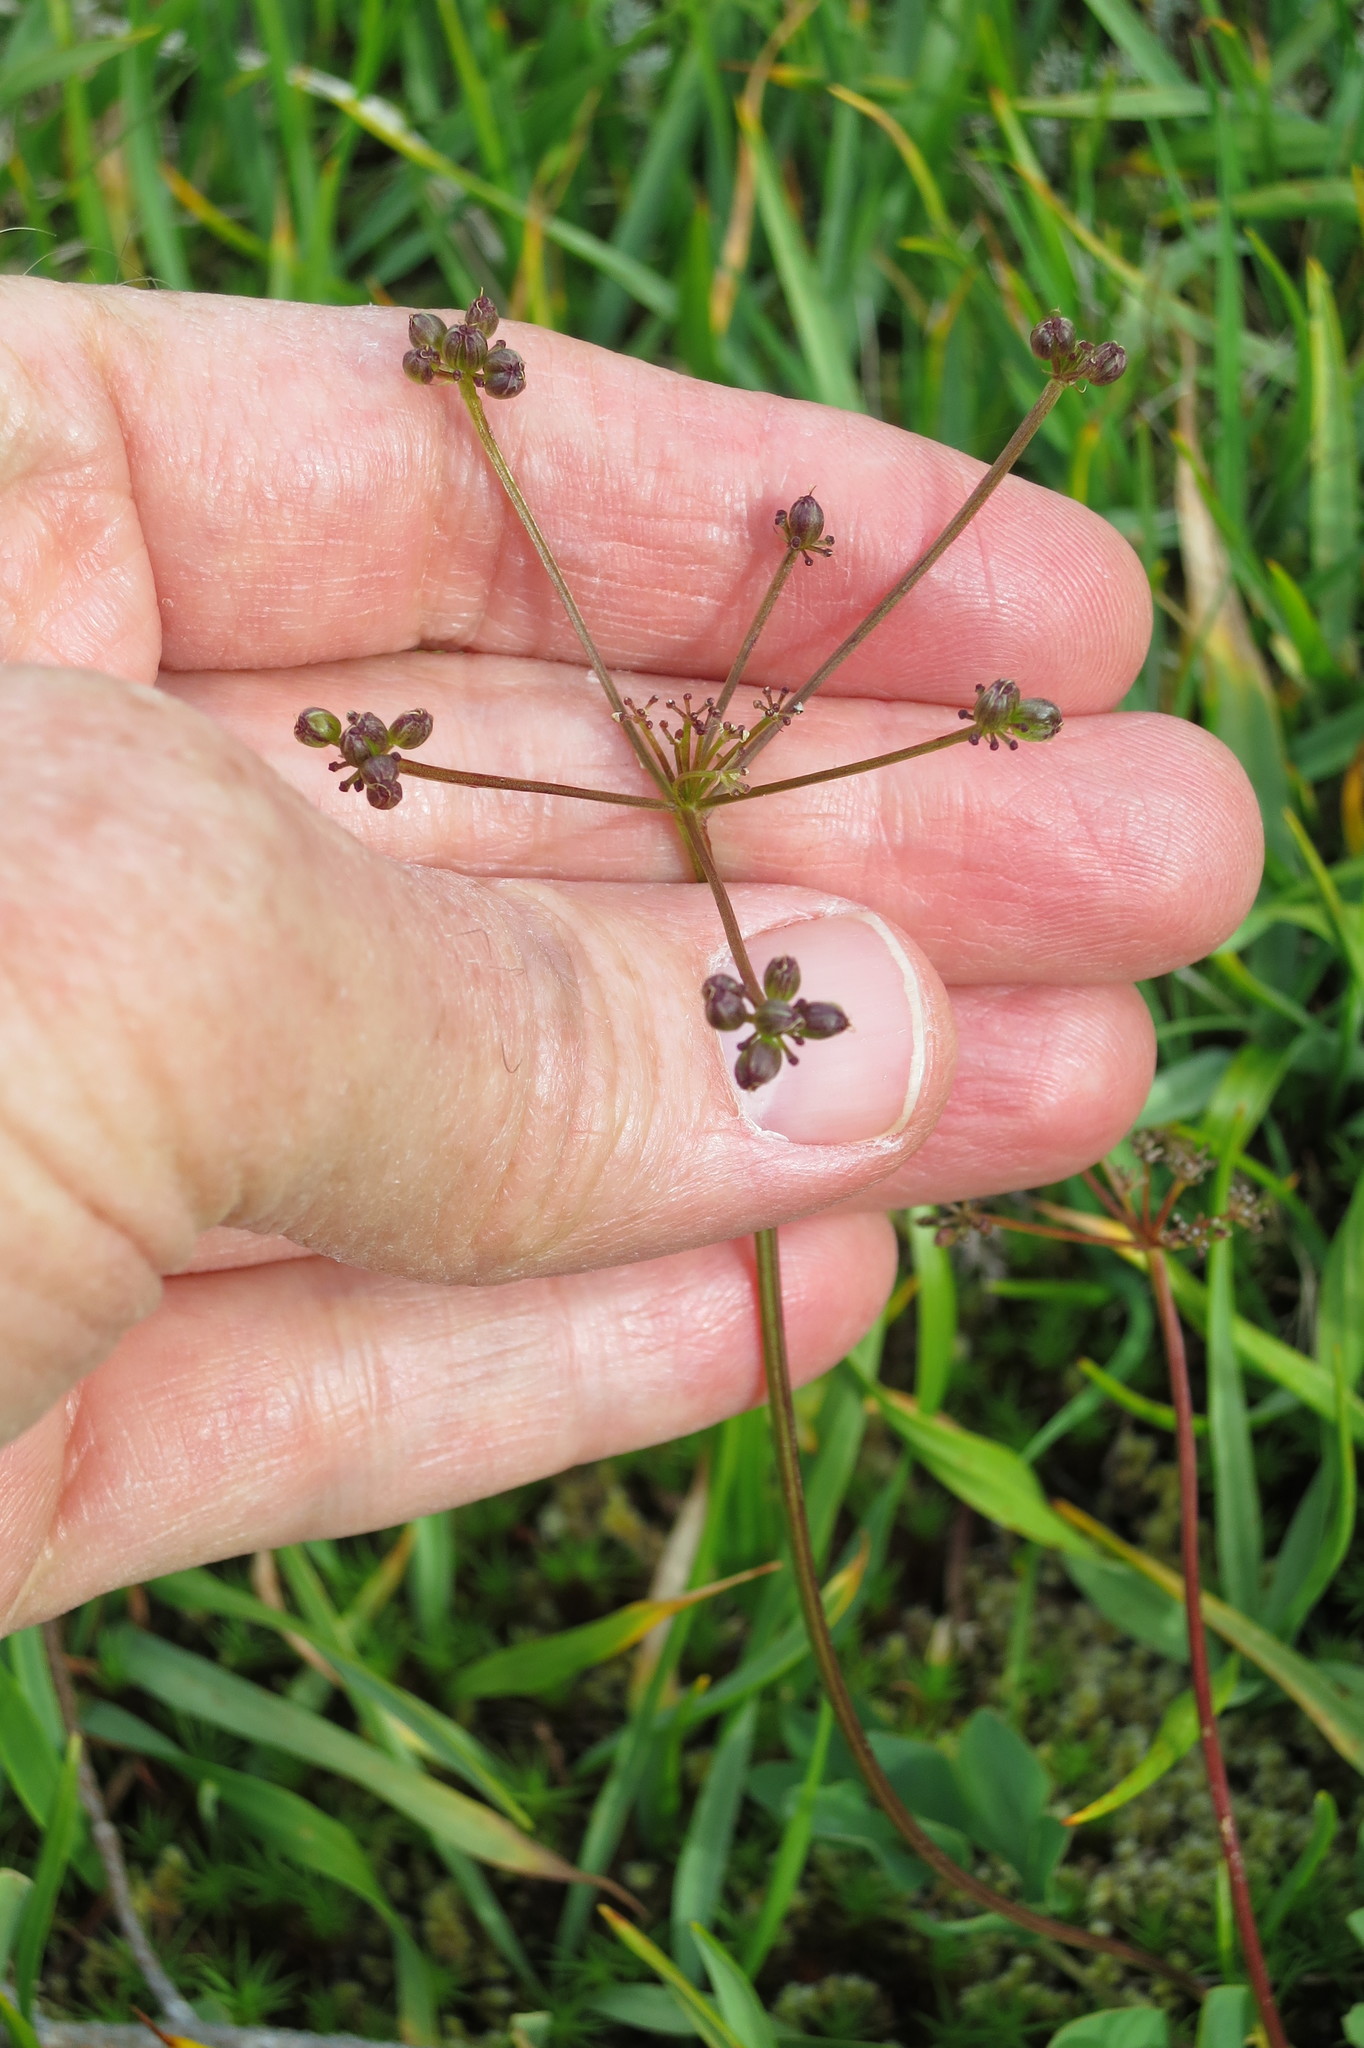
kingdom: Plantae
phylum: Tracheophyta
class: Magnoliopsida
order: Apiales
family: Apiaceae
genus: Tauschia
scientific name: Tauschia stricklandii
